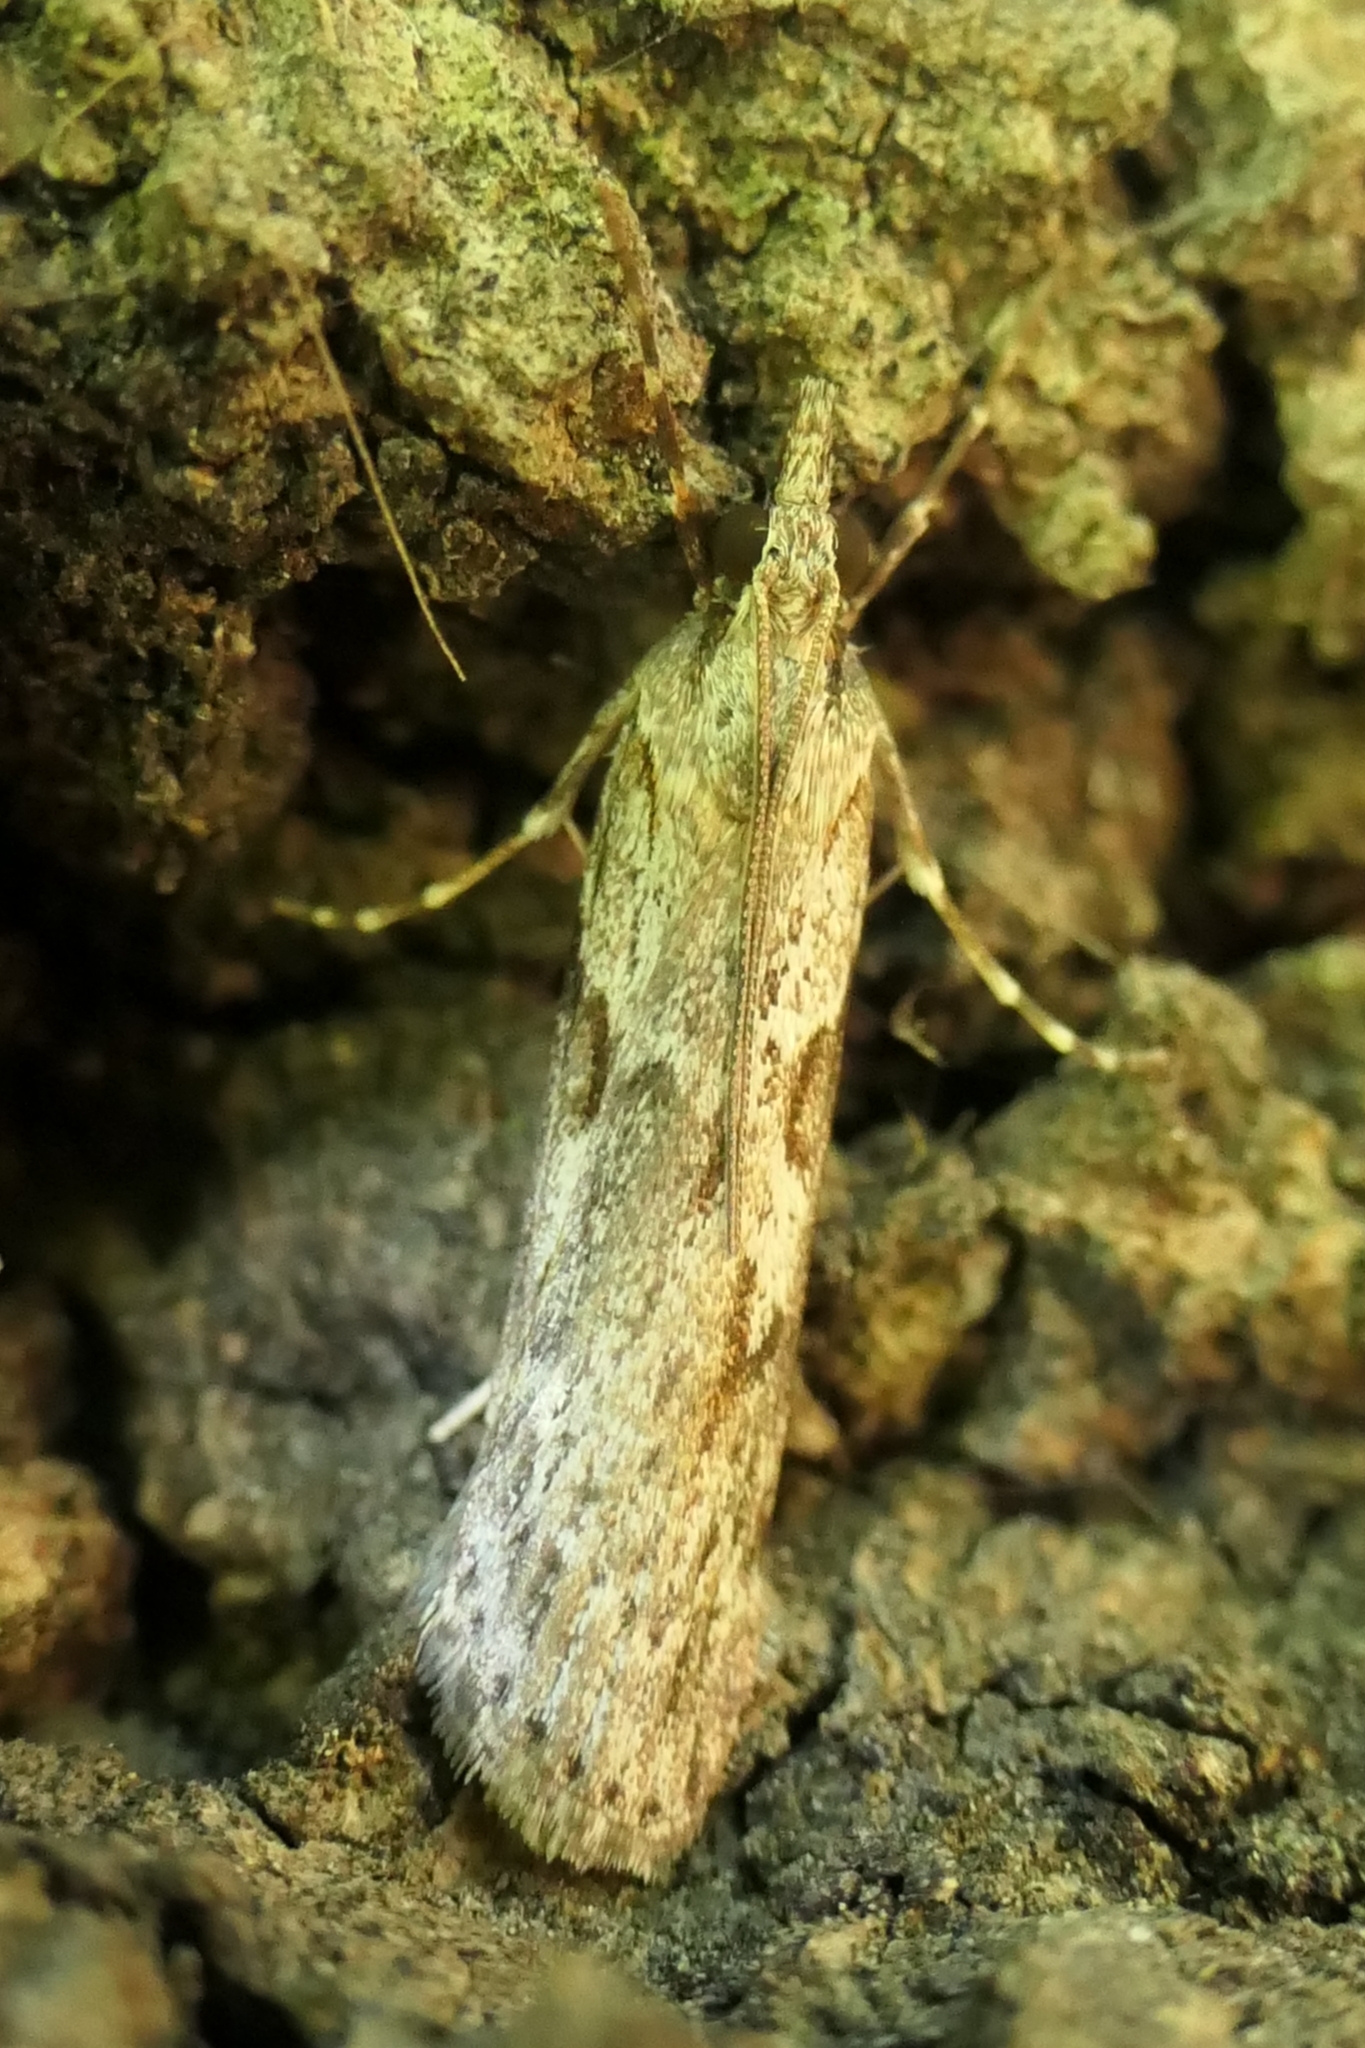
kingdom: Animalia
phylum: Arthropoda
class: Insecta
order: Lepidoptera
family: Crambidae
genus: Scoparia
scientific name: Scoparia halopis
